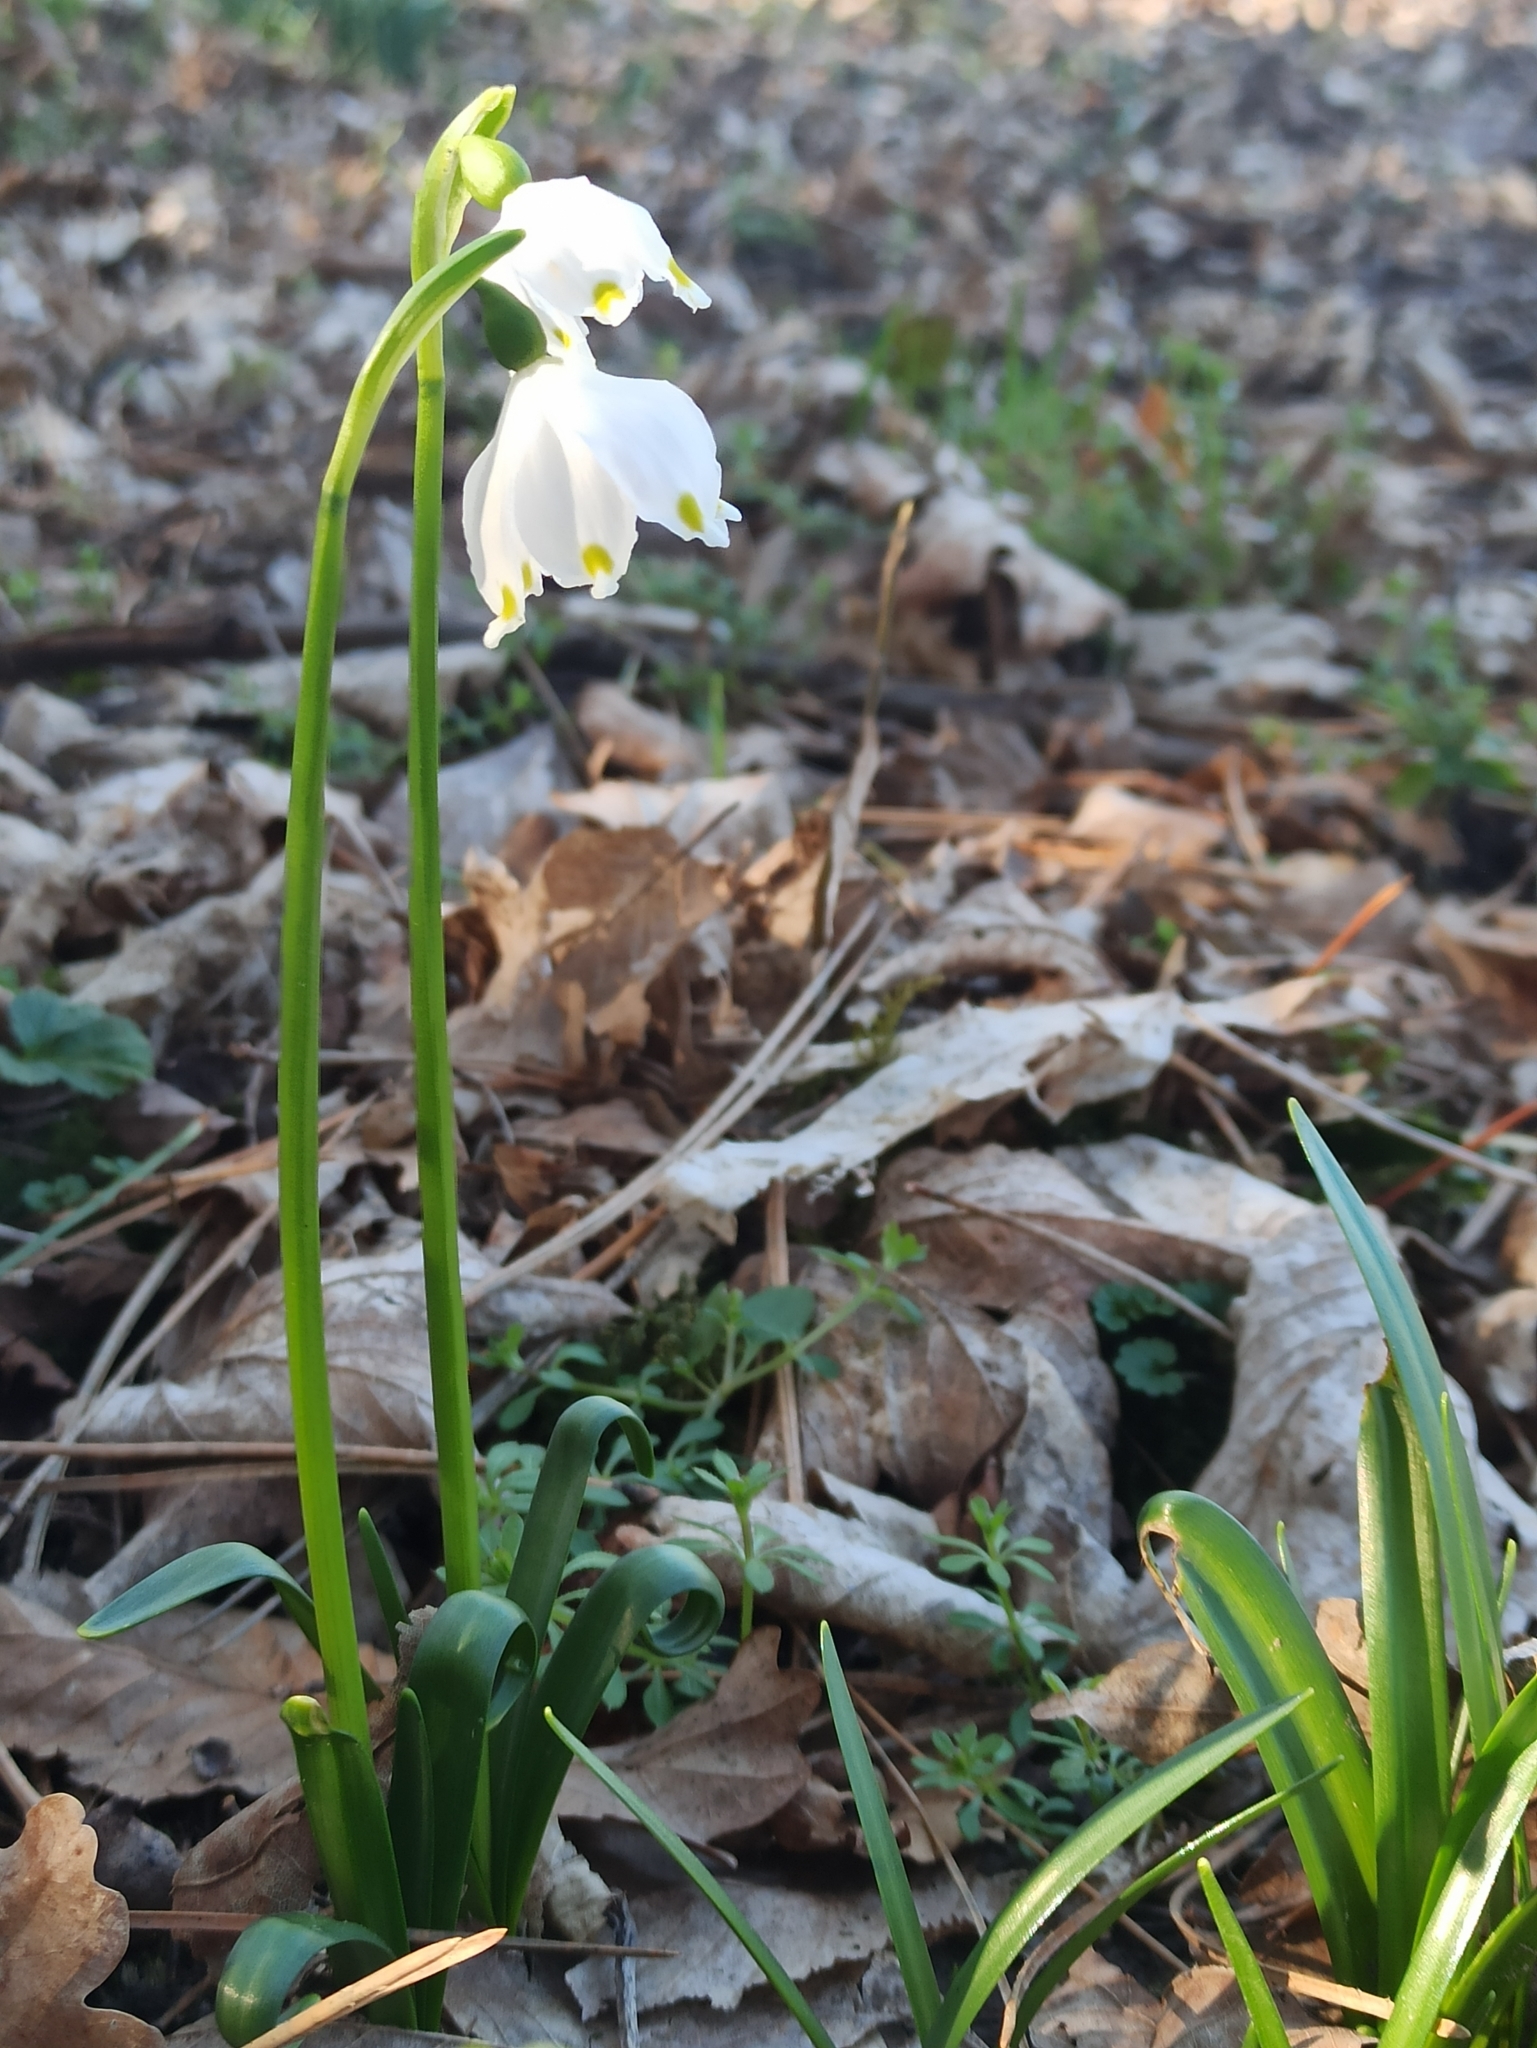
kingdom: Plantae
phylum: Tracheophyta
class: Liliopsida
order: Asparagales
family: Amaryllidaceae
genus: Leucojum
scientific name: Leucojum vernum
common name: Spring snowflake
